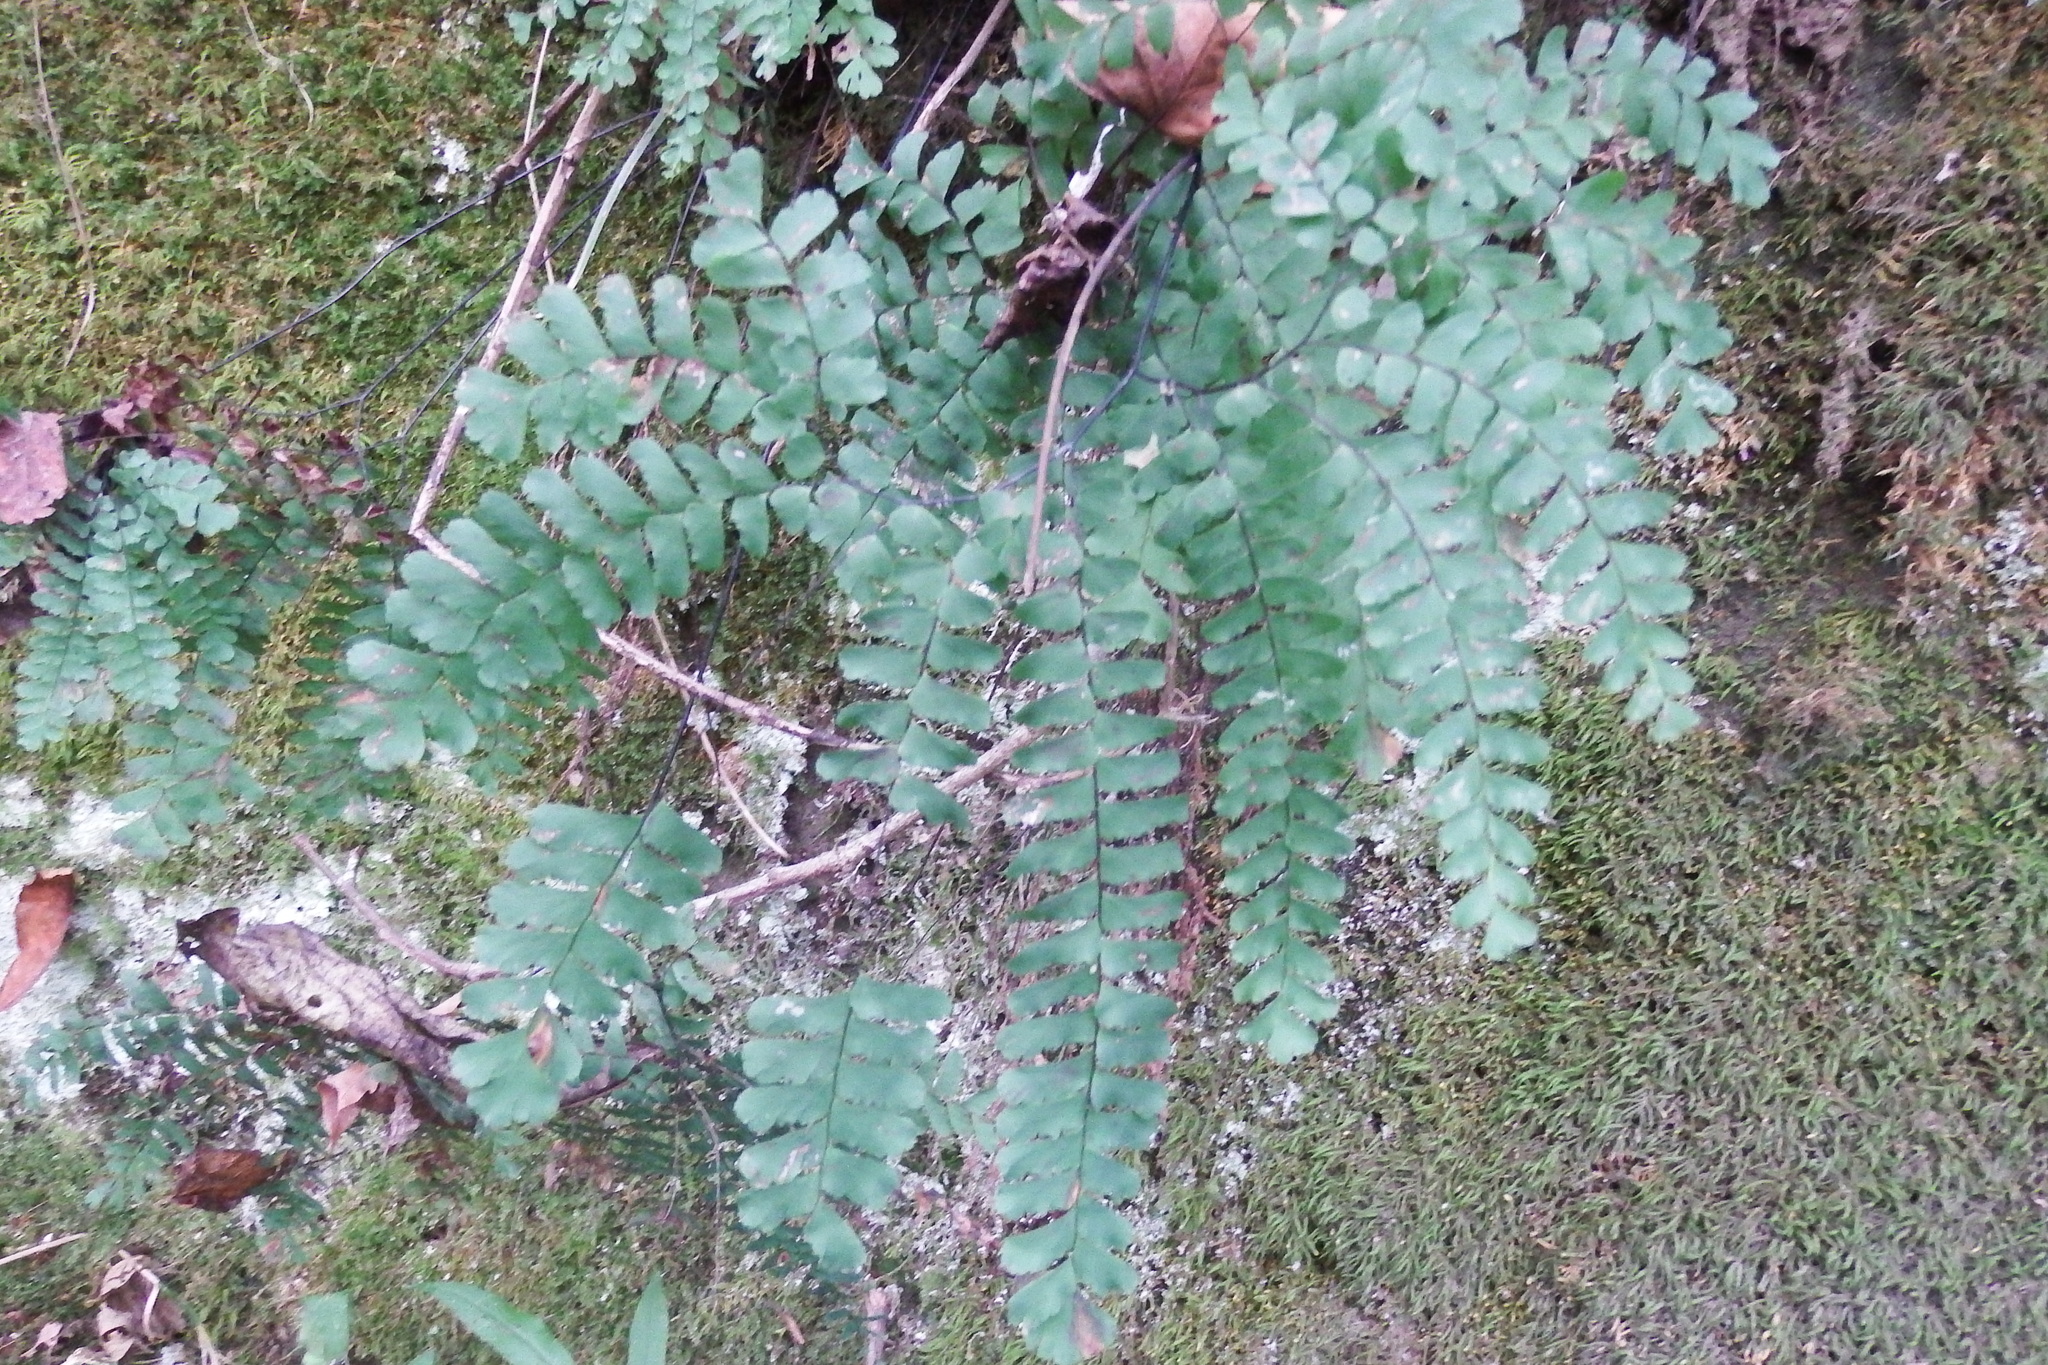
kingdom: Plantae
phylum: Tracheophyta
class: Polypodiopsida
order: Polypodiales
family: Pteridaceae
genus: Adiantum
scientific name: Adiantum pedatum
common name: Five-finger fern
